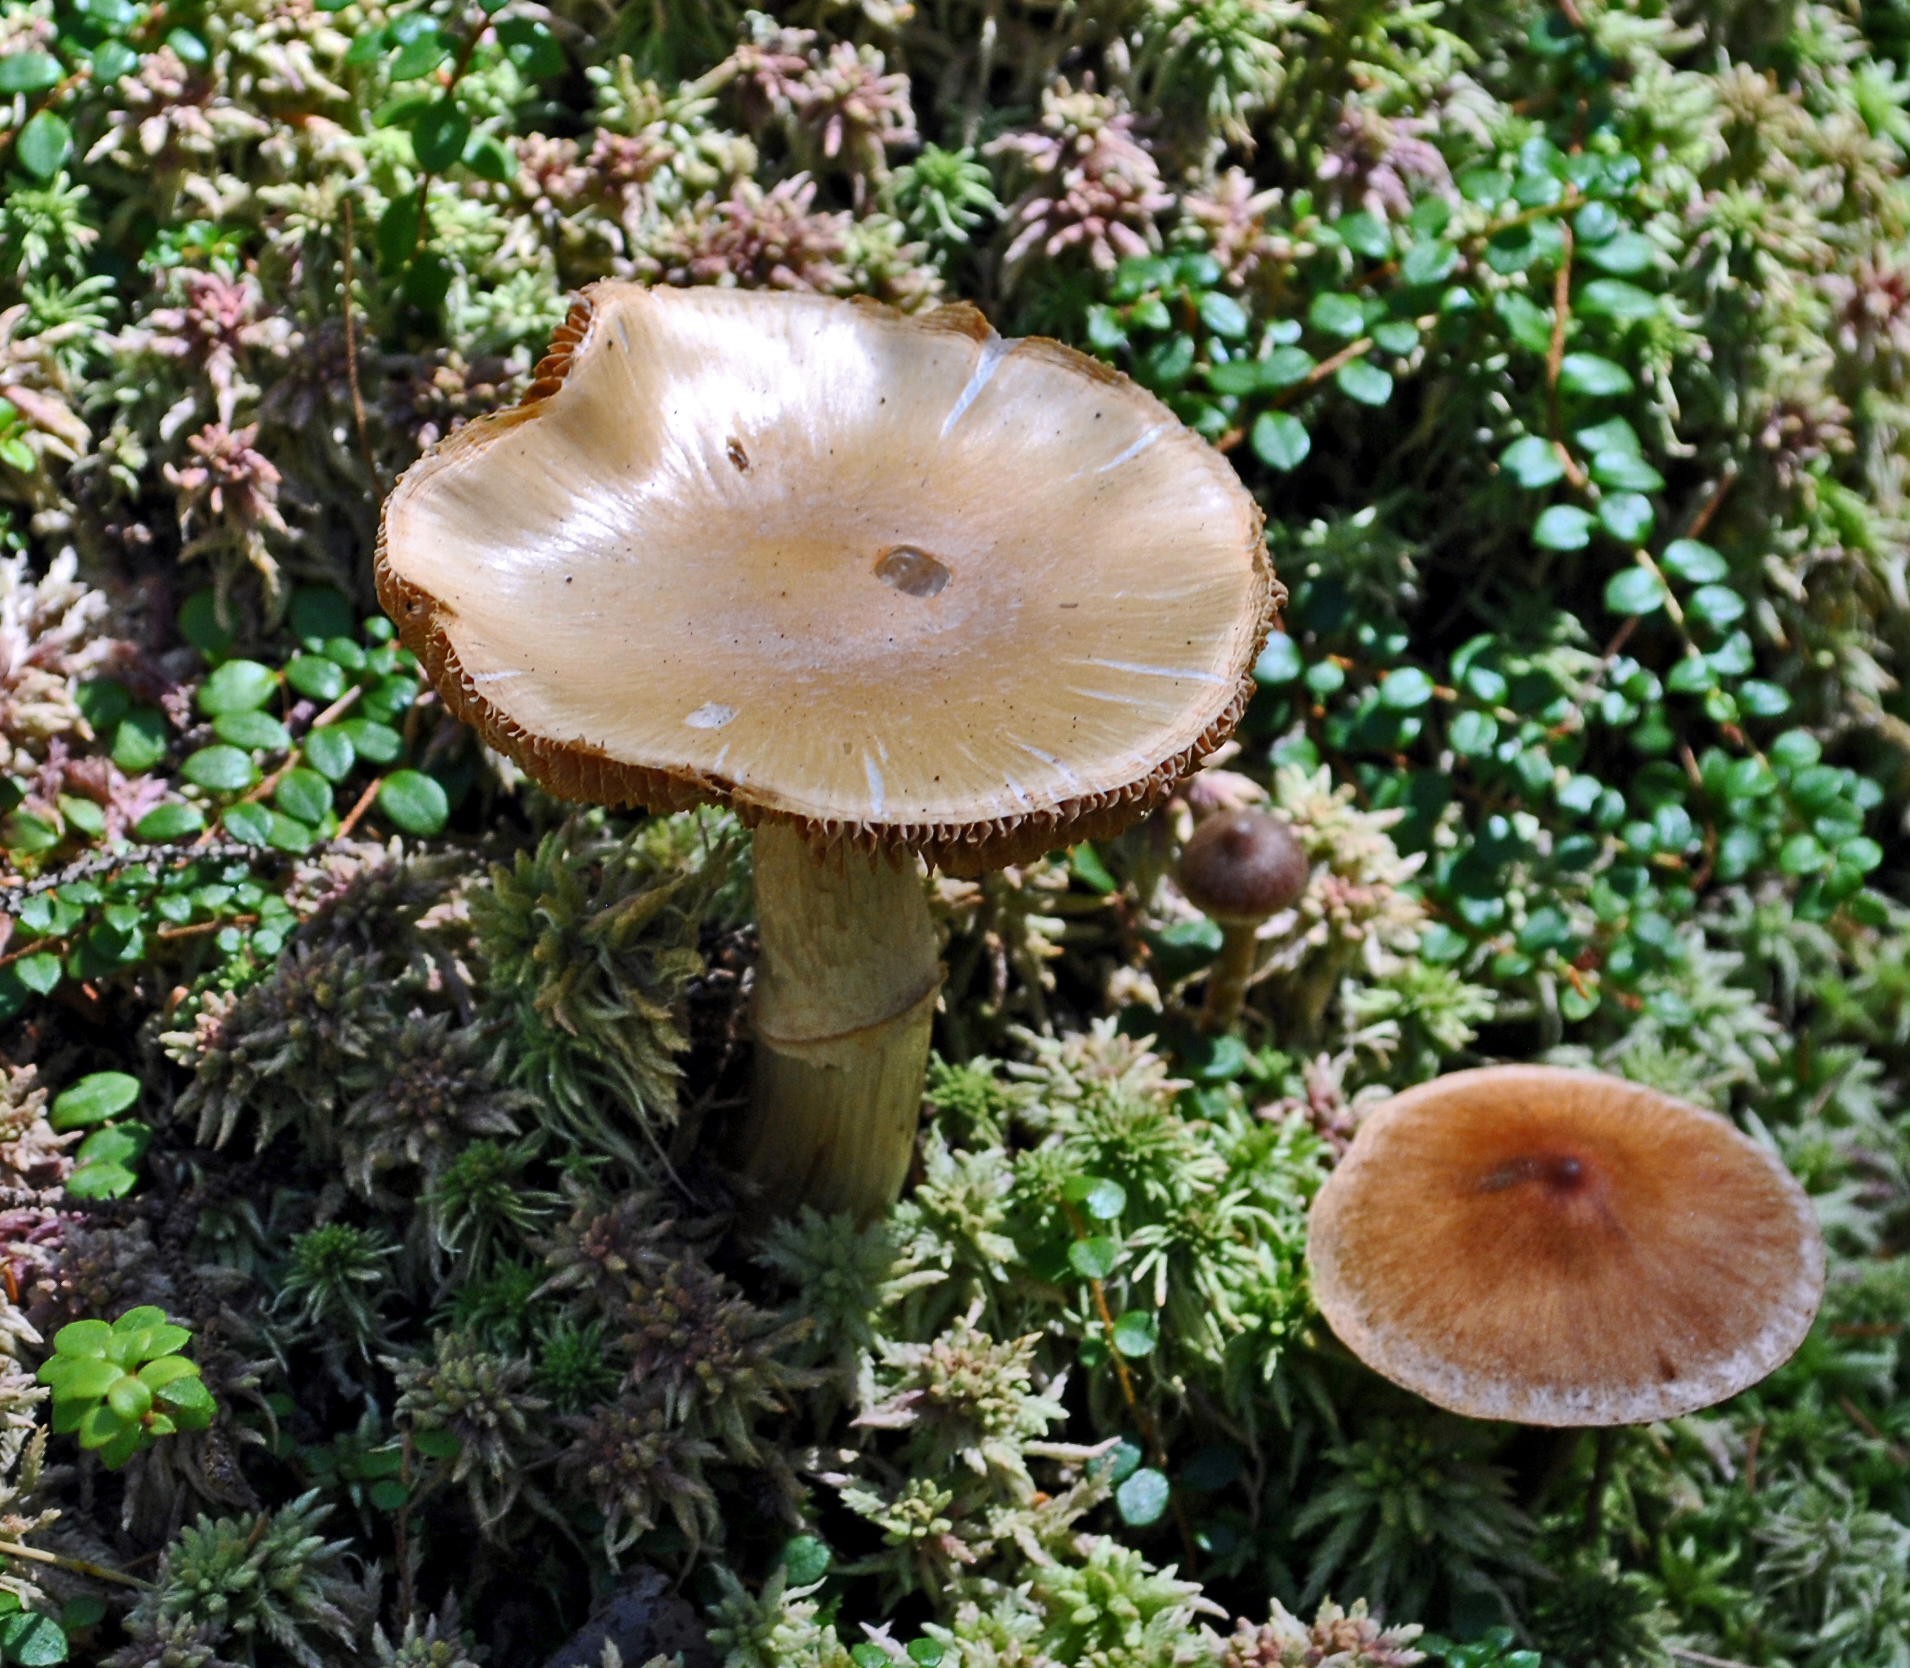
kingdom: Fungi
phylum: Basidiomycota
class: Agaricomycetes
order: Agaricales
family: Cortinariaceae
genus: Cortinarius
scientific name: Cortinarius caperatus
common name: The gypsy
